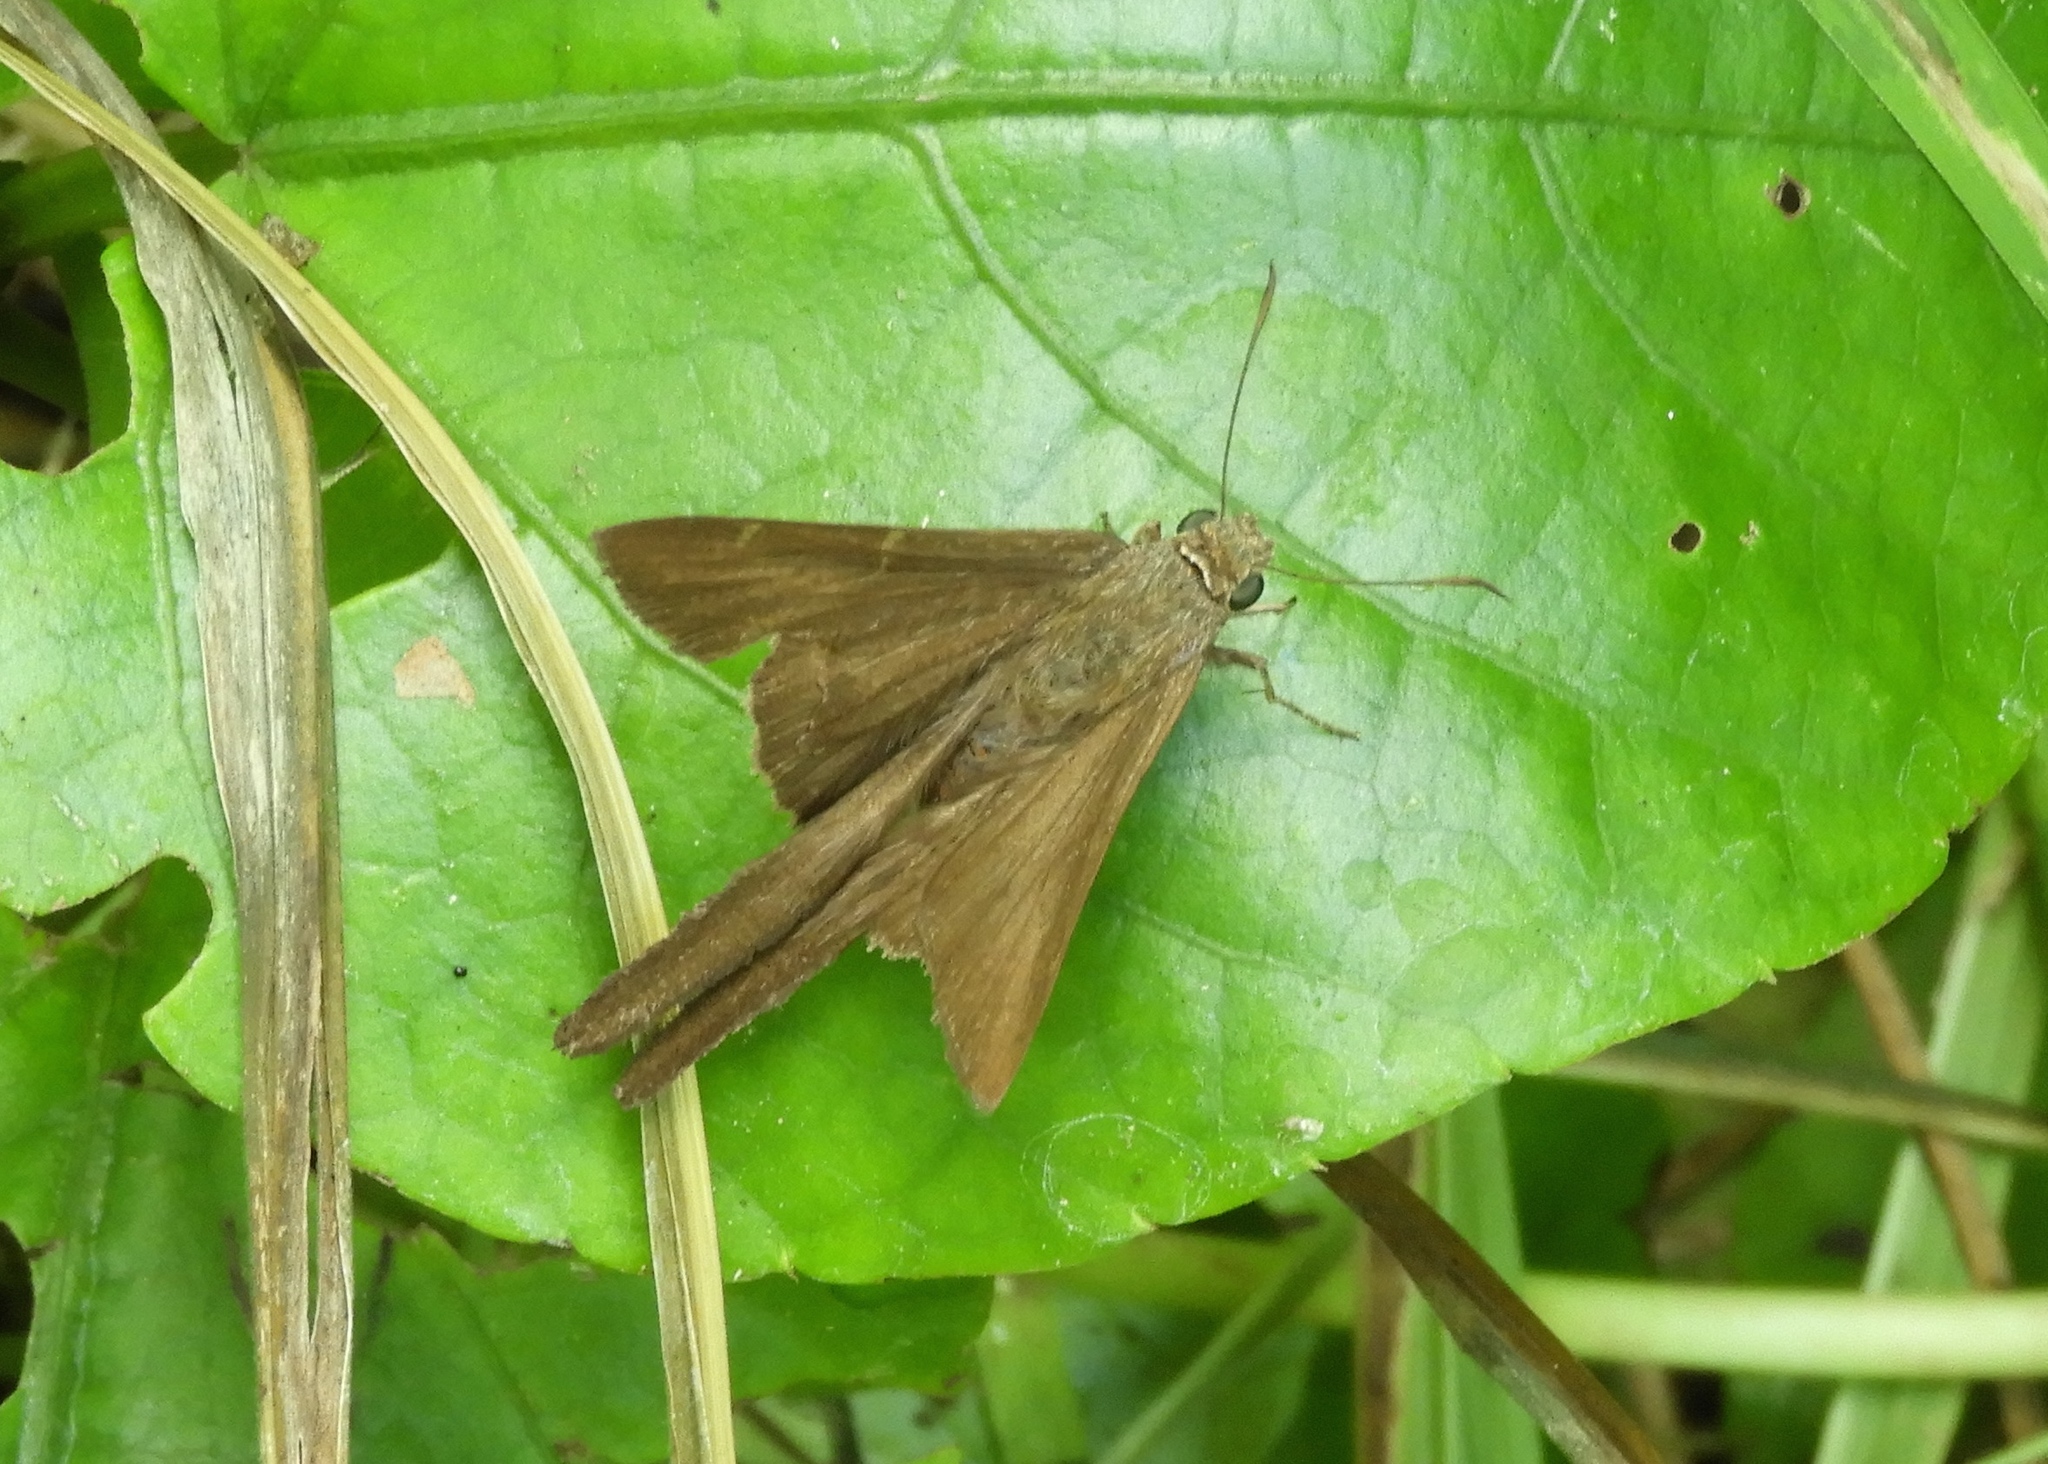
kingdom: Animalia
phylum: Arthropoda
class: Insecta
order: Lepidoptera
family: Hesperiidae
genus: Urbanus
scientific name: Urbanus procne
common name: Brown longtail
